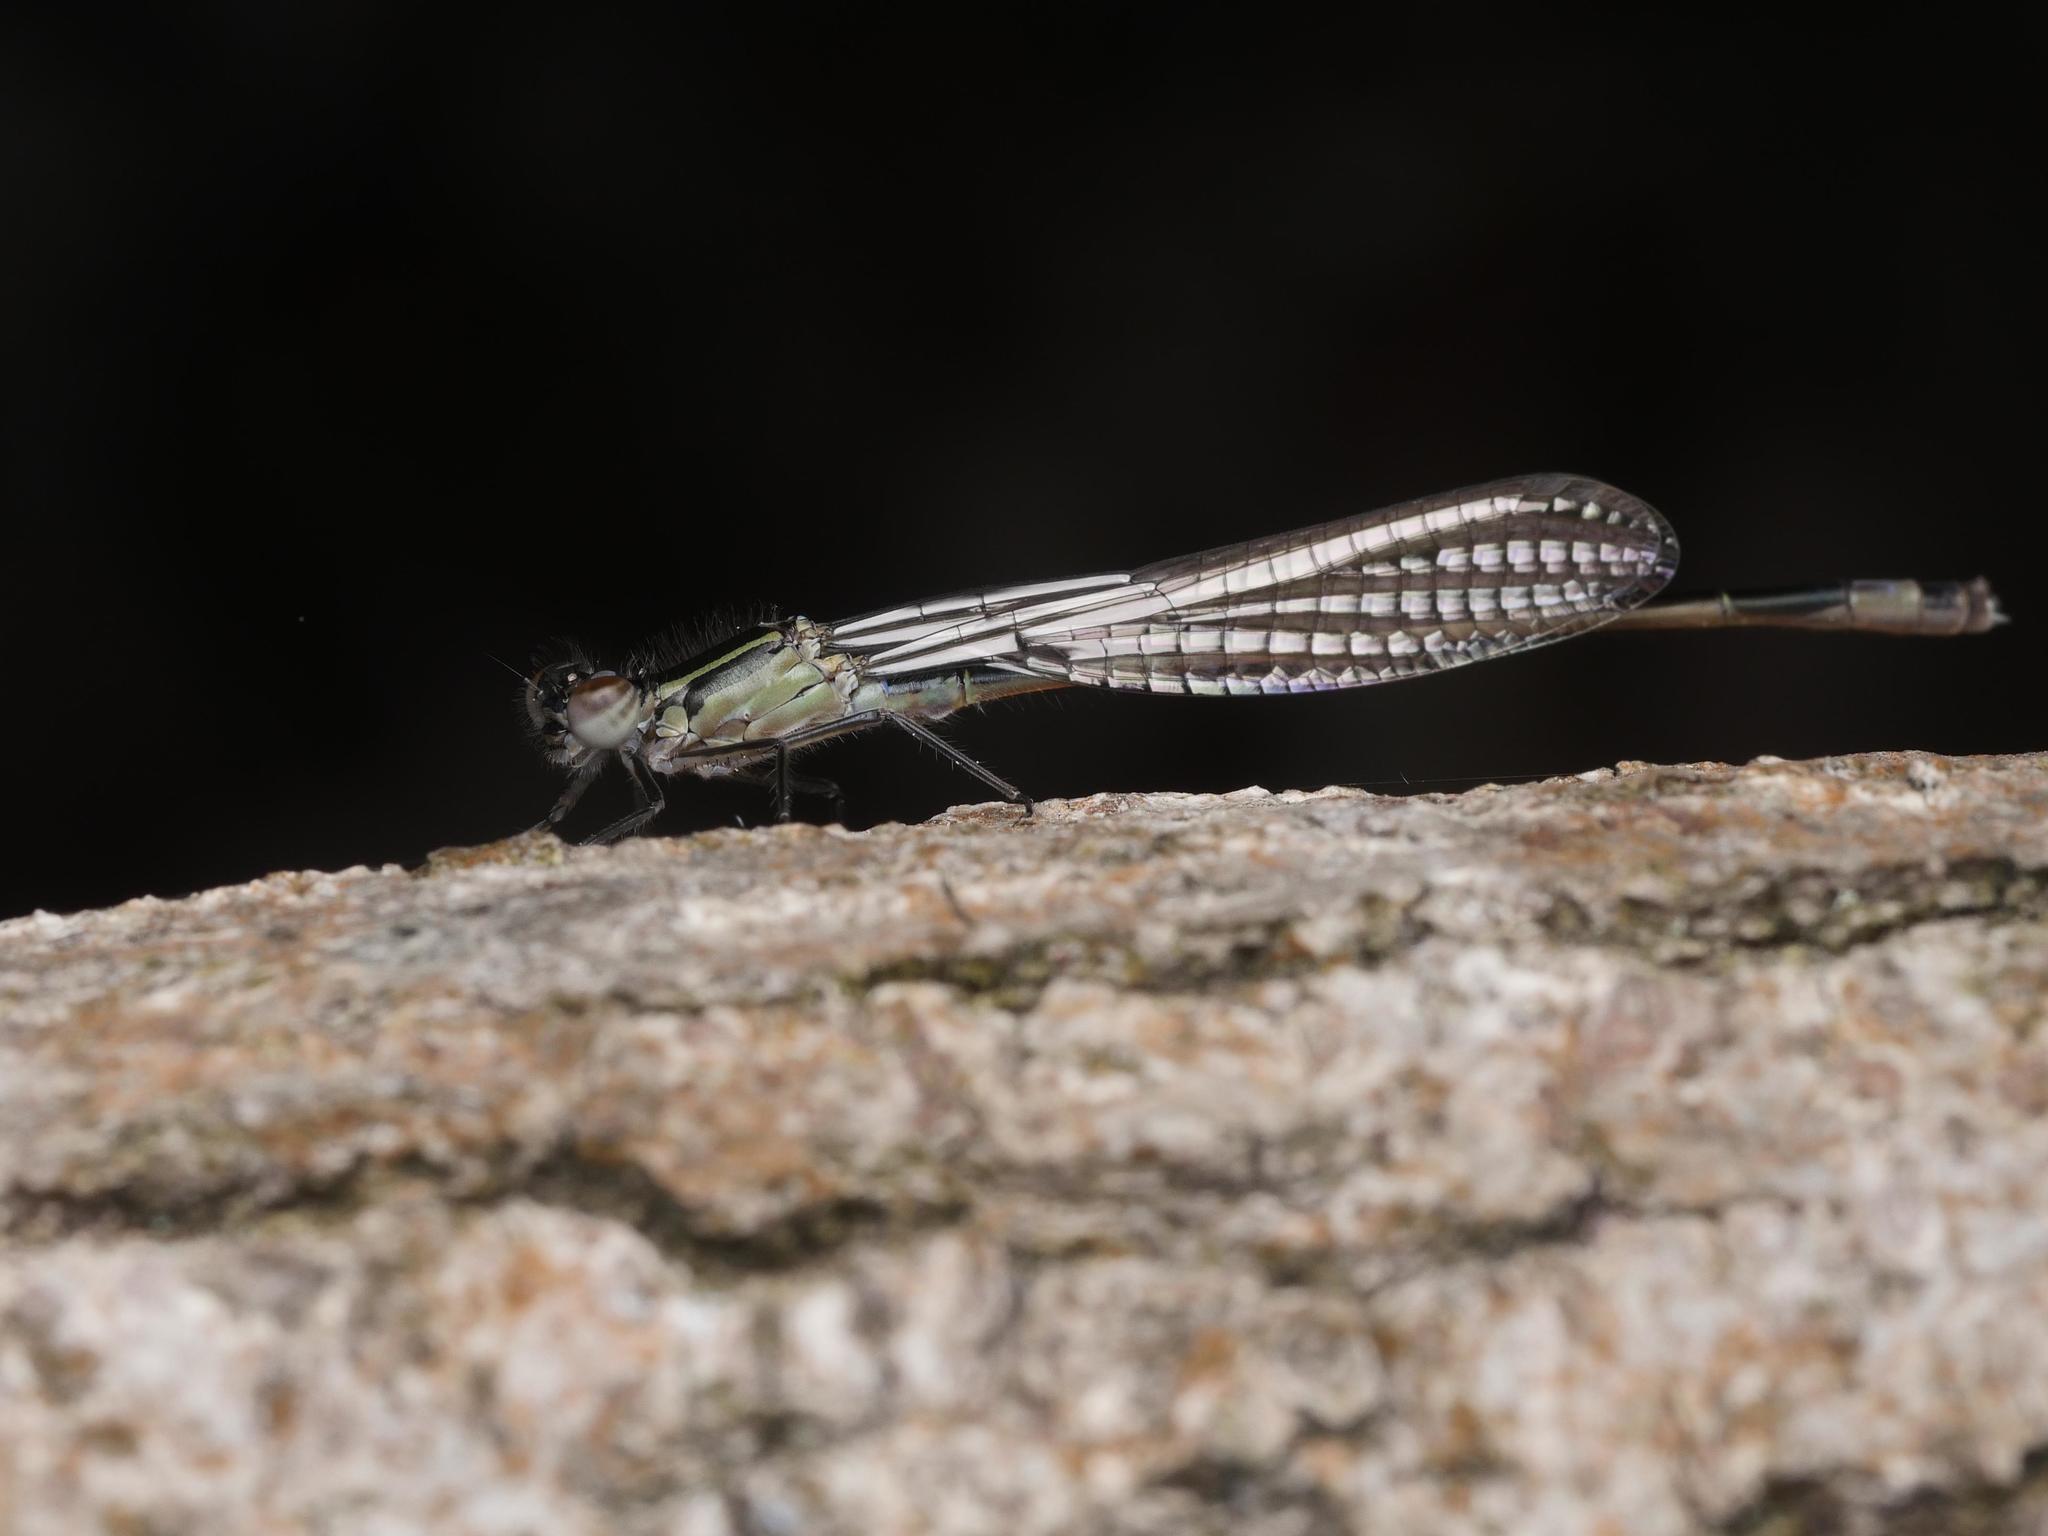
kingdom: Animalia
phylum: Arthropoda
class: Insecta
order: Odonata
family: Coenagrionidae
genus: Ischnura
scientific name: Ischnura elegans
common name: Blue-tailed damselfly
